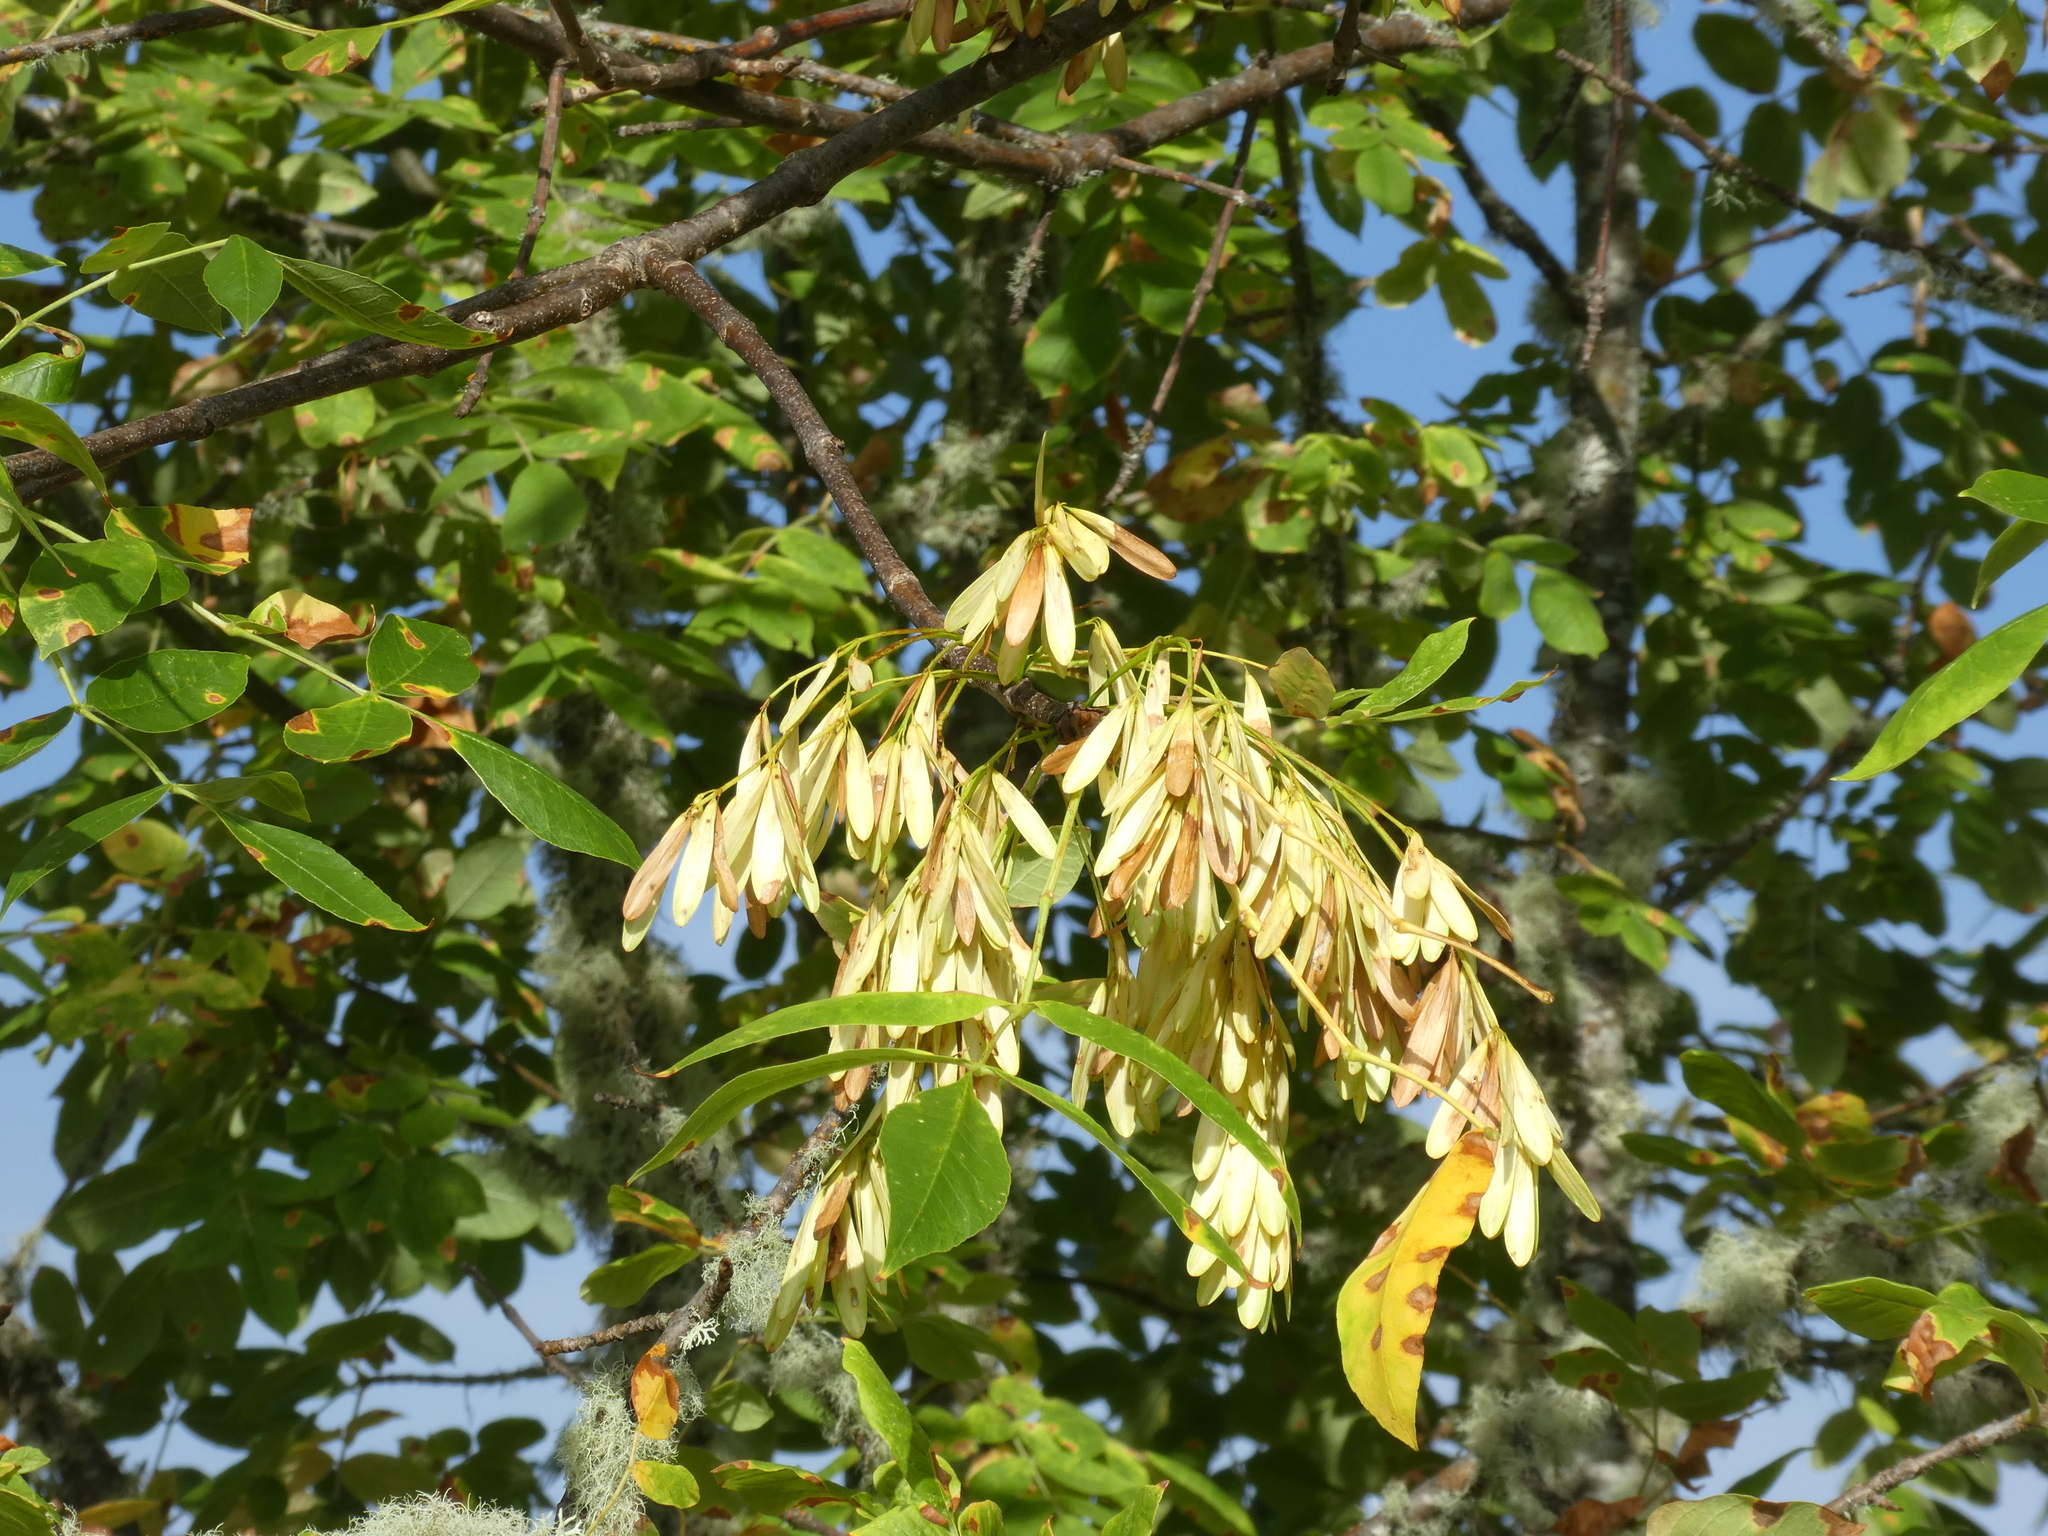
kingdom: Plantae
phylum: Tracheophyta
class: Magnoliopsida
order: Lamiales
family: Oleaceae
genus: Fraxinus
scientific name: Fraxinus latifolia
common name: Oregon ash
